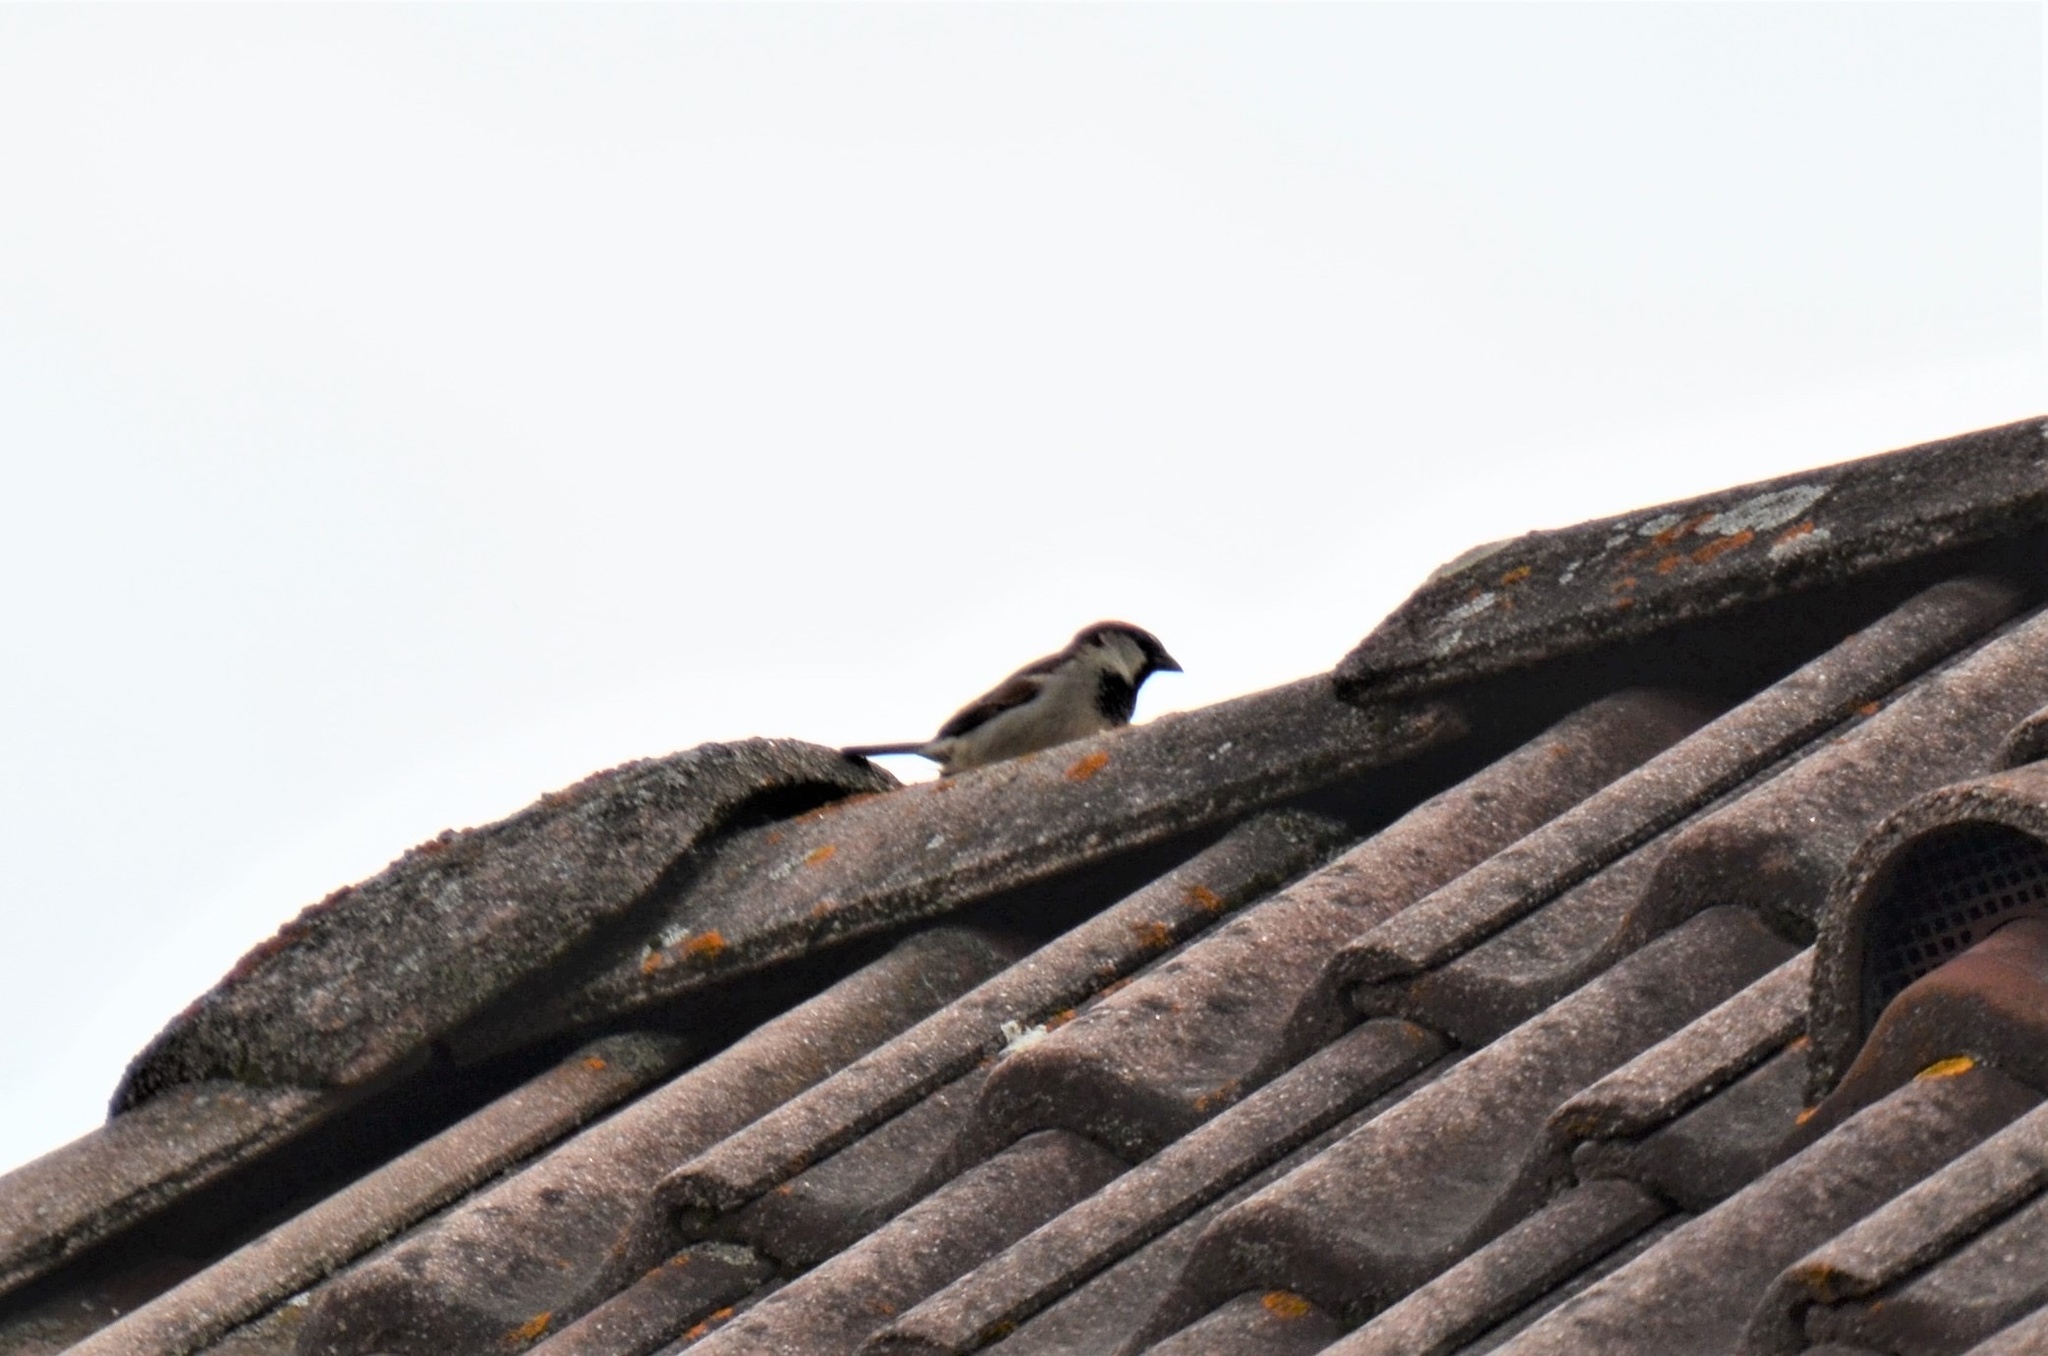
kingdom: Animalia
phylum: Chordata
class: Aves
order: Passeriformes
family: Passeridae
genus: Passer
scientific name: Passer domesticus
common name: House sparrow
